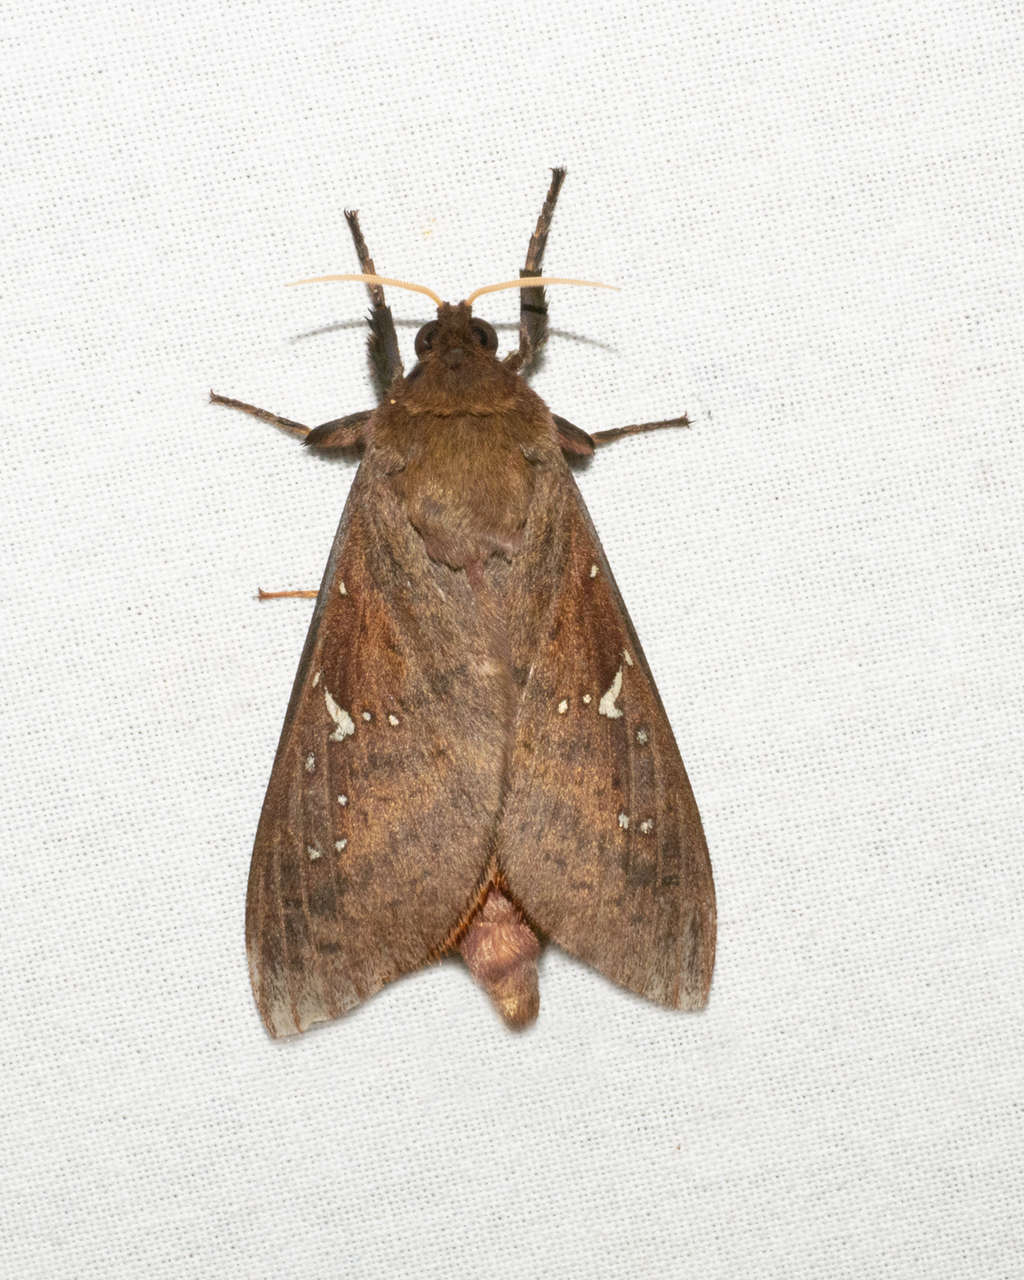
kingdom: Animalia
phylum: Arthropoda
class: Insecta
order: Lepidoptera
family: Hepialidae
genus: Oxycanus
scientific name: Oxycanus sirpus
